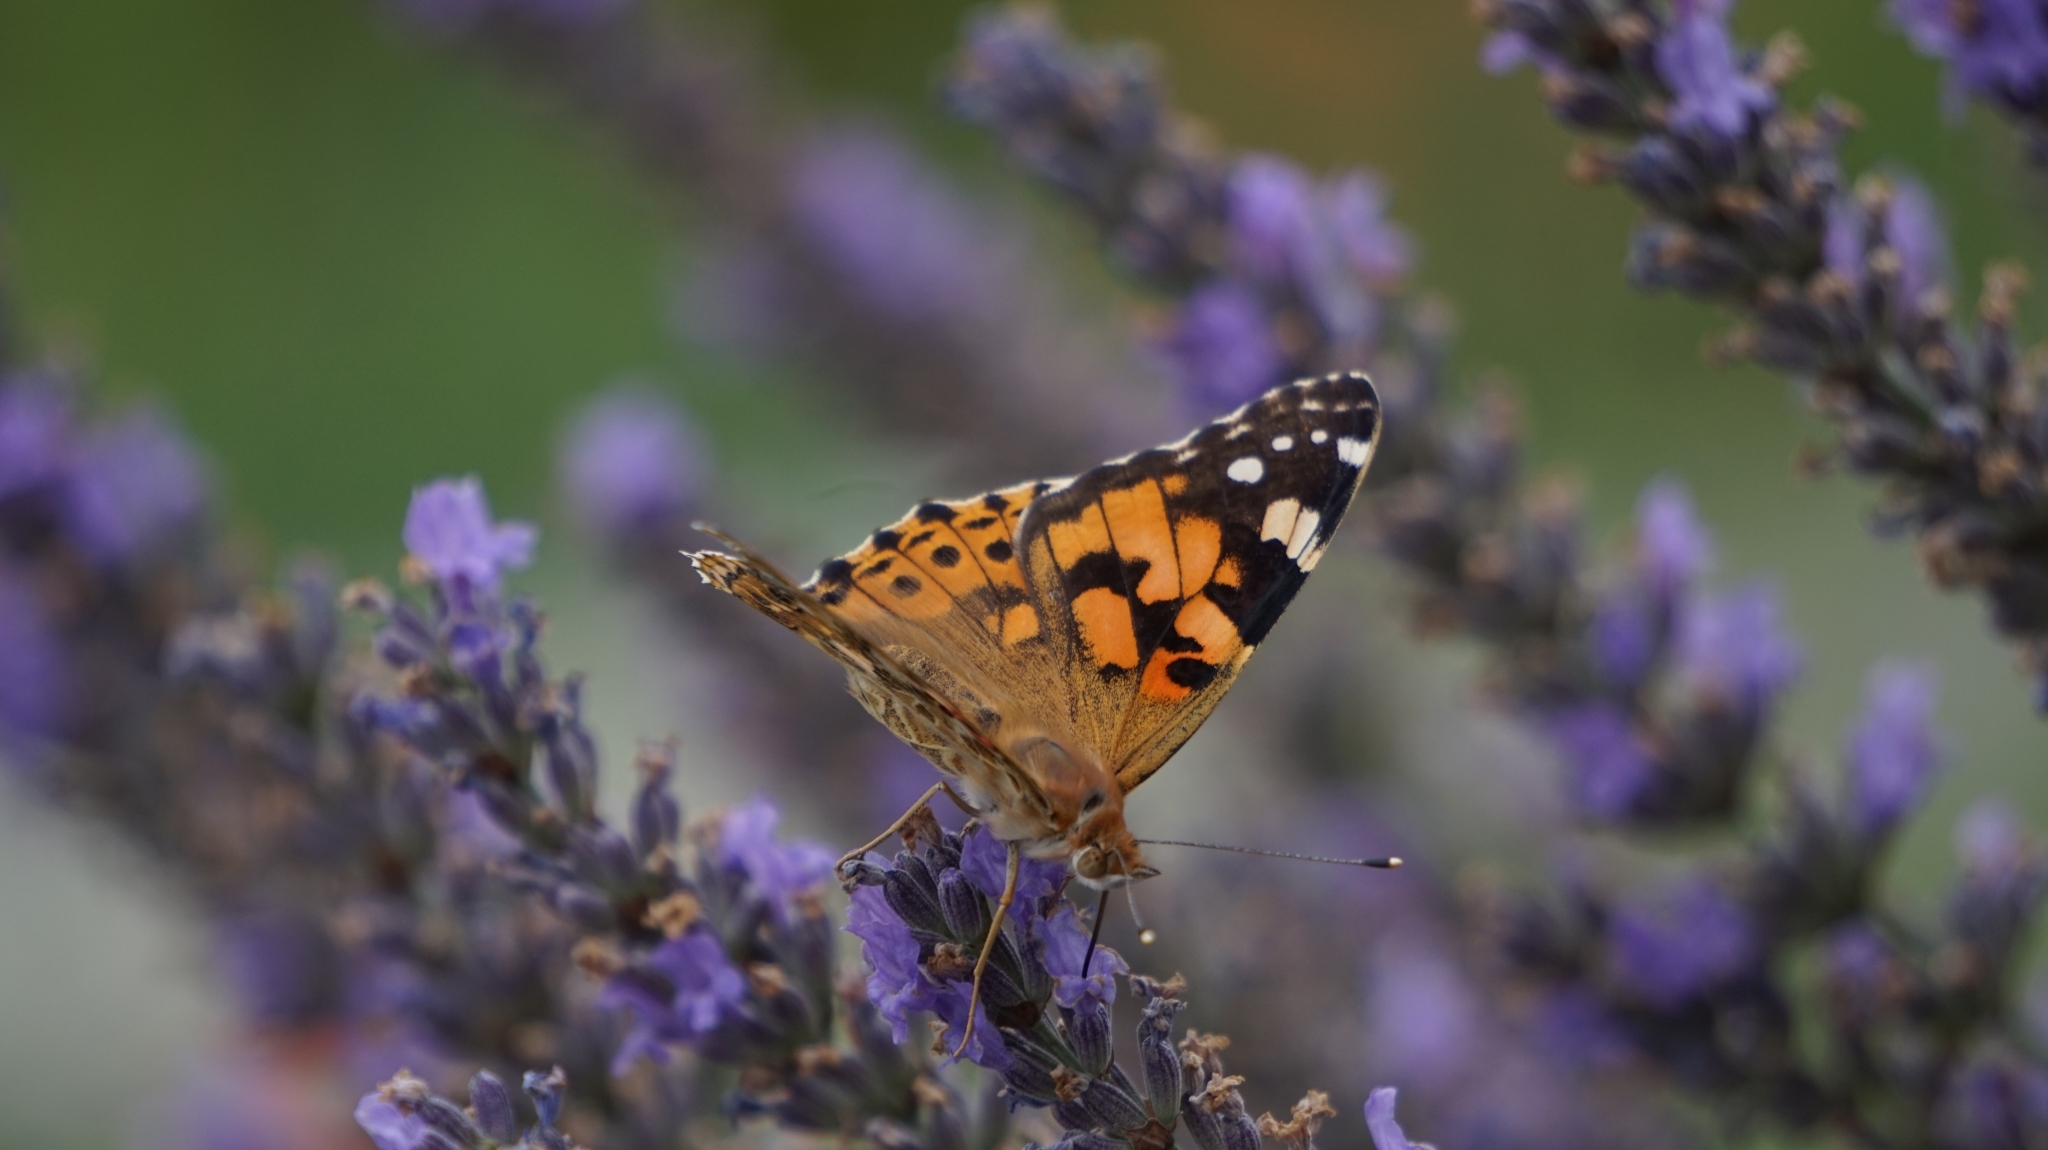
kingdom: Animalia
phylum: Arthropoda
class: Insecta
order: Lepidoptera
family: Nymphalidae
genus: Vanessa
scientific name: Vanessa cardui
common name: Painted lady
